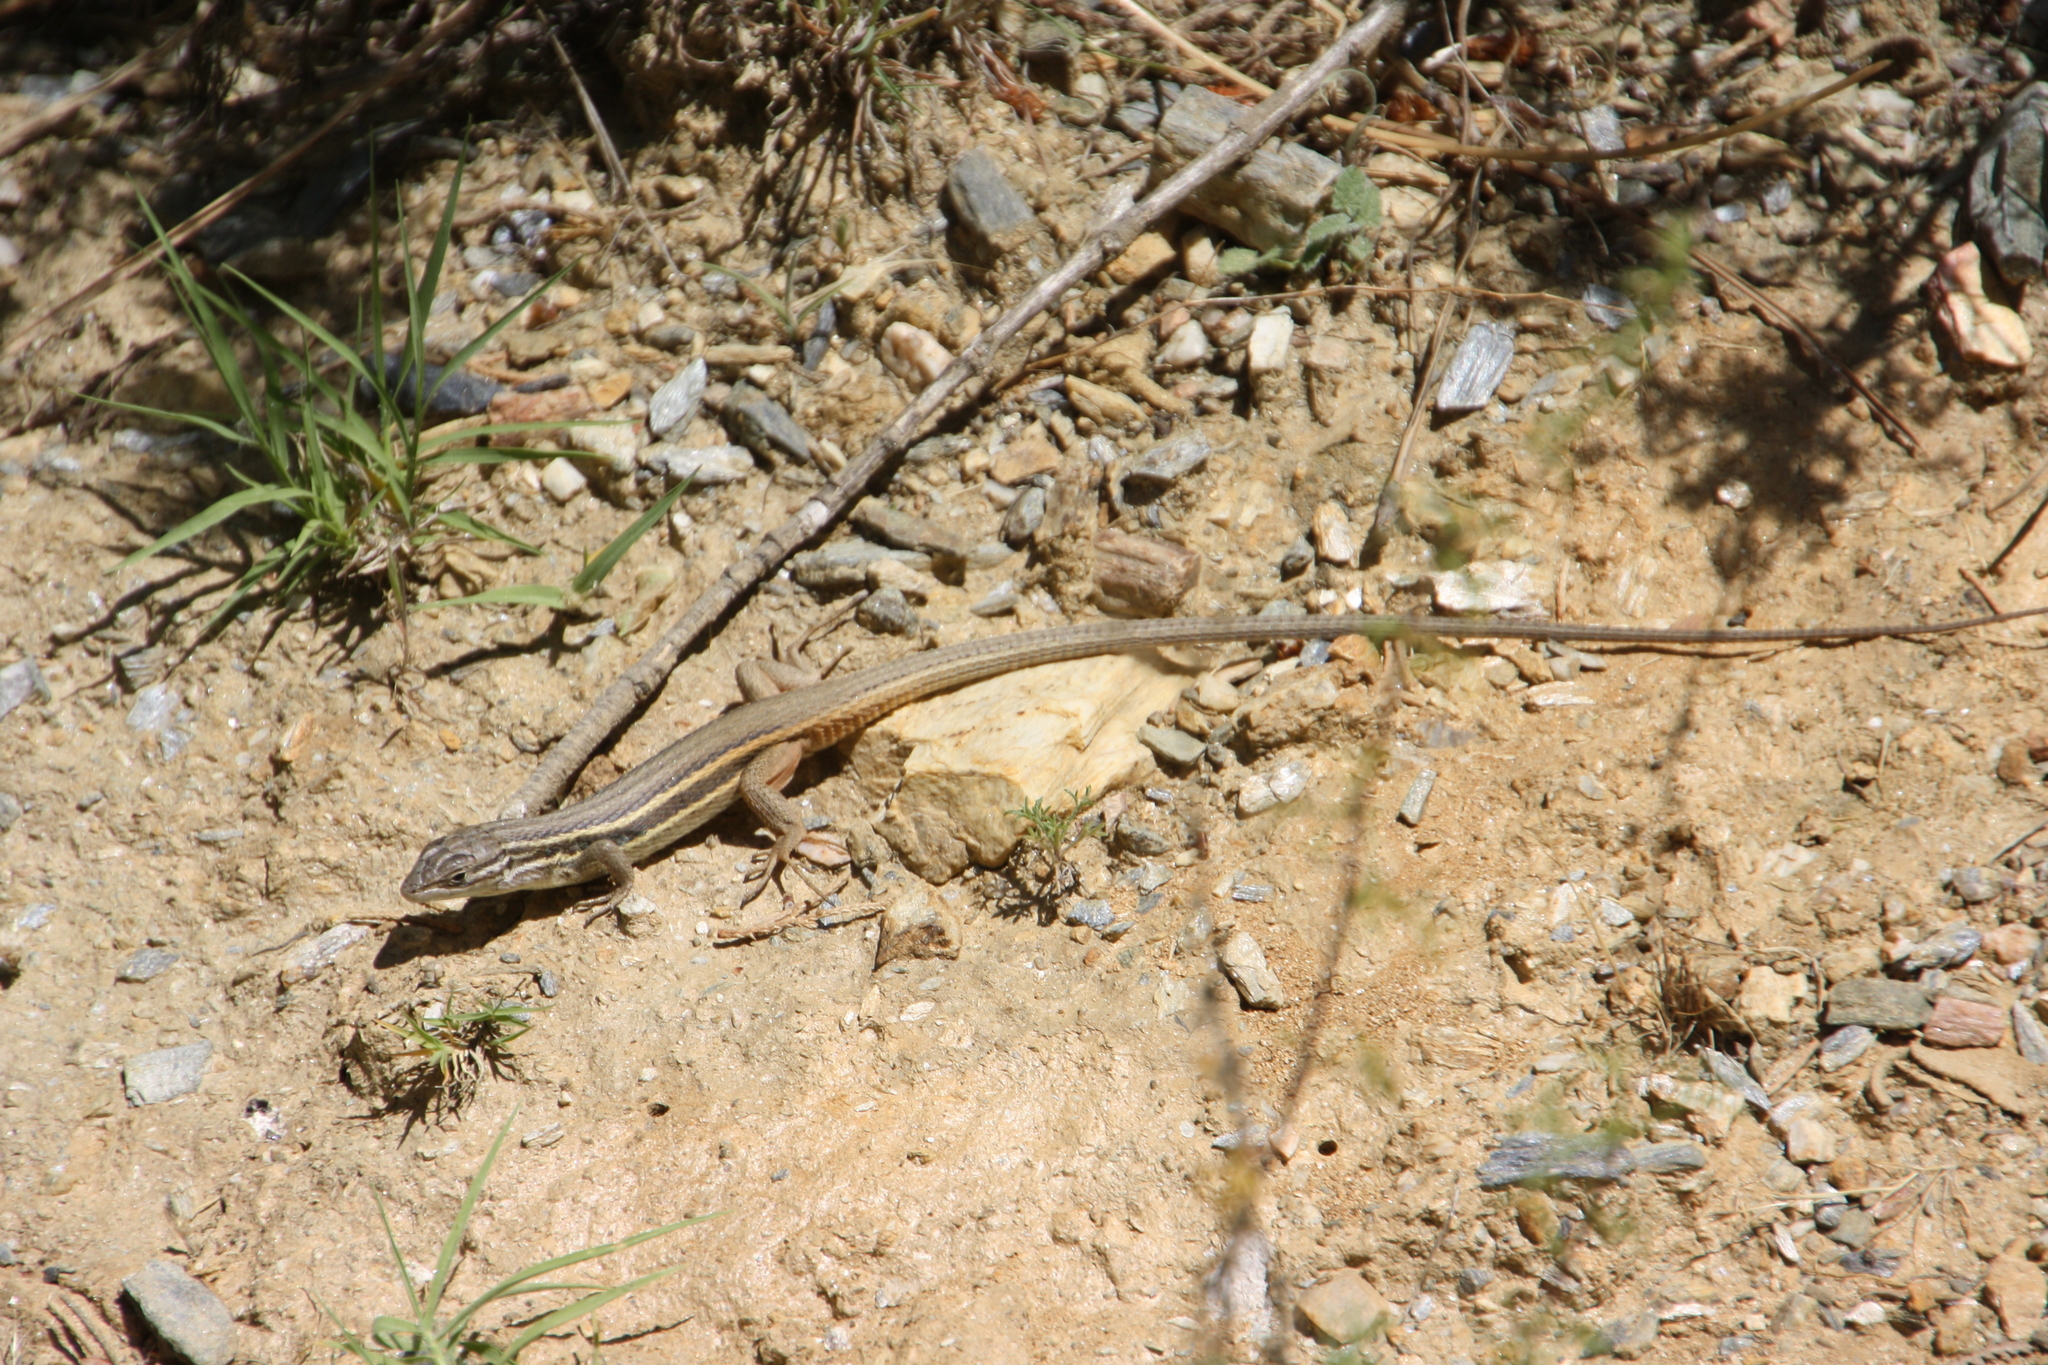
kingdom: Animalia
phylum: Chordata
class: Squamata
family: Lacertidae
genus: Psammodromus
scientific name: Psammodromus algirus
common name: Algerian psammodromus
